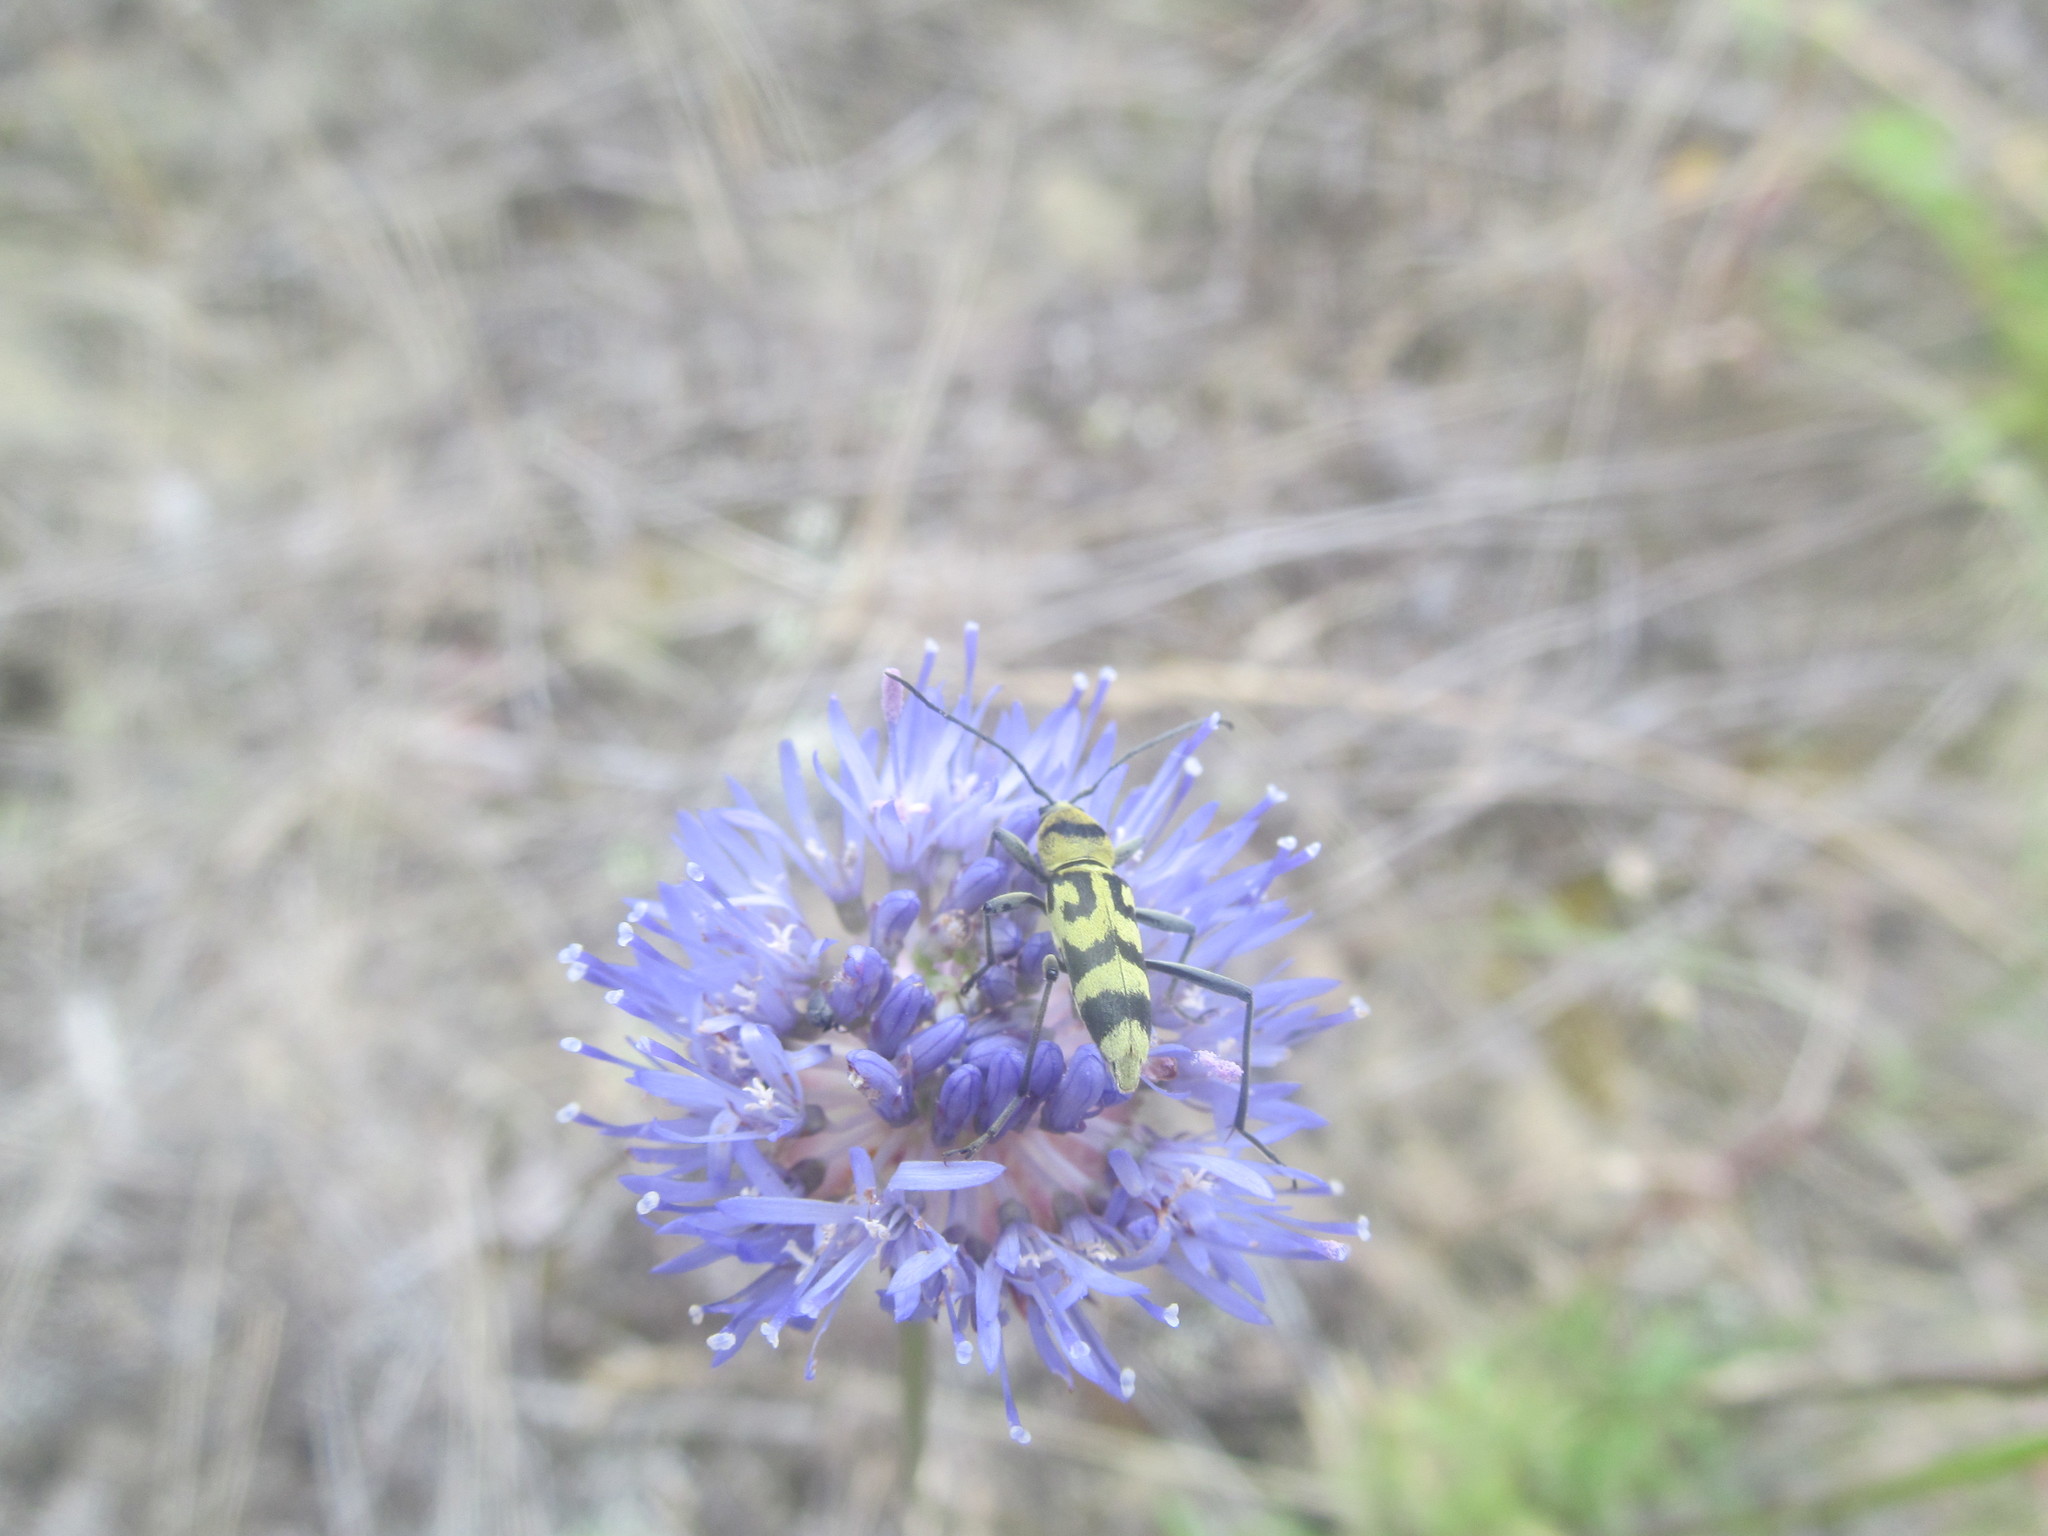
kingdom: Animalia
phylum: Arthropoda
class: Insecta
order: Coleoptera
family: Cerambycidae
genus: Chlorophorus
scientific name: Chlorophorus varius
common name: Grape wood borer
